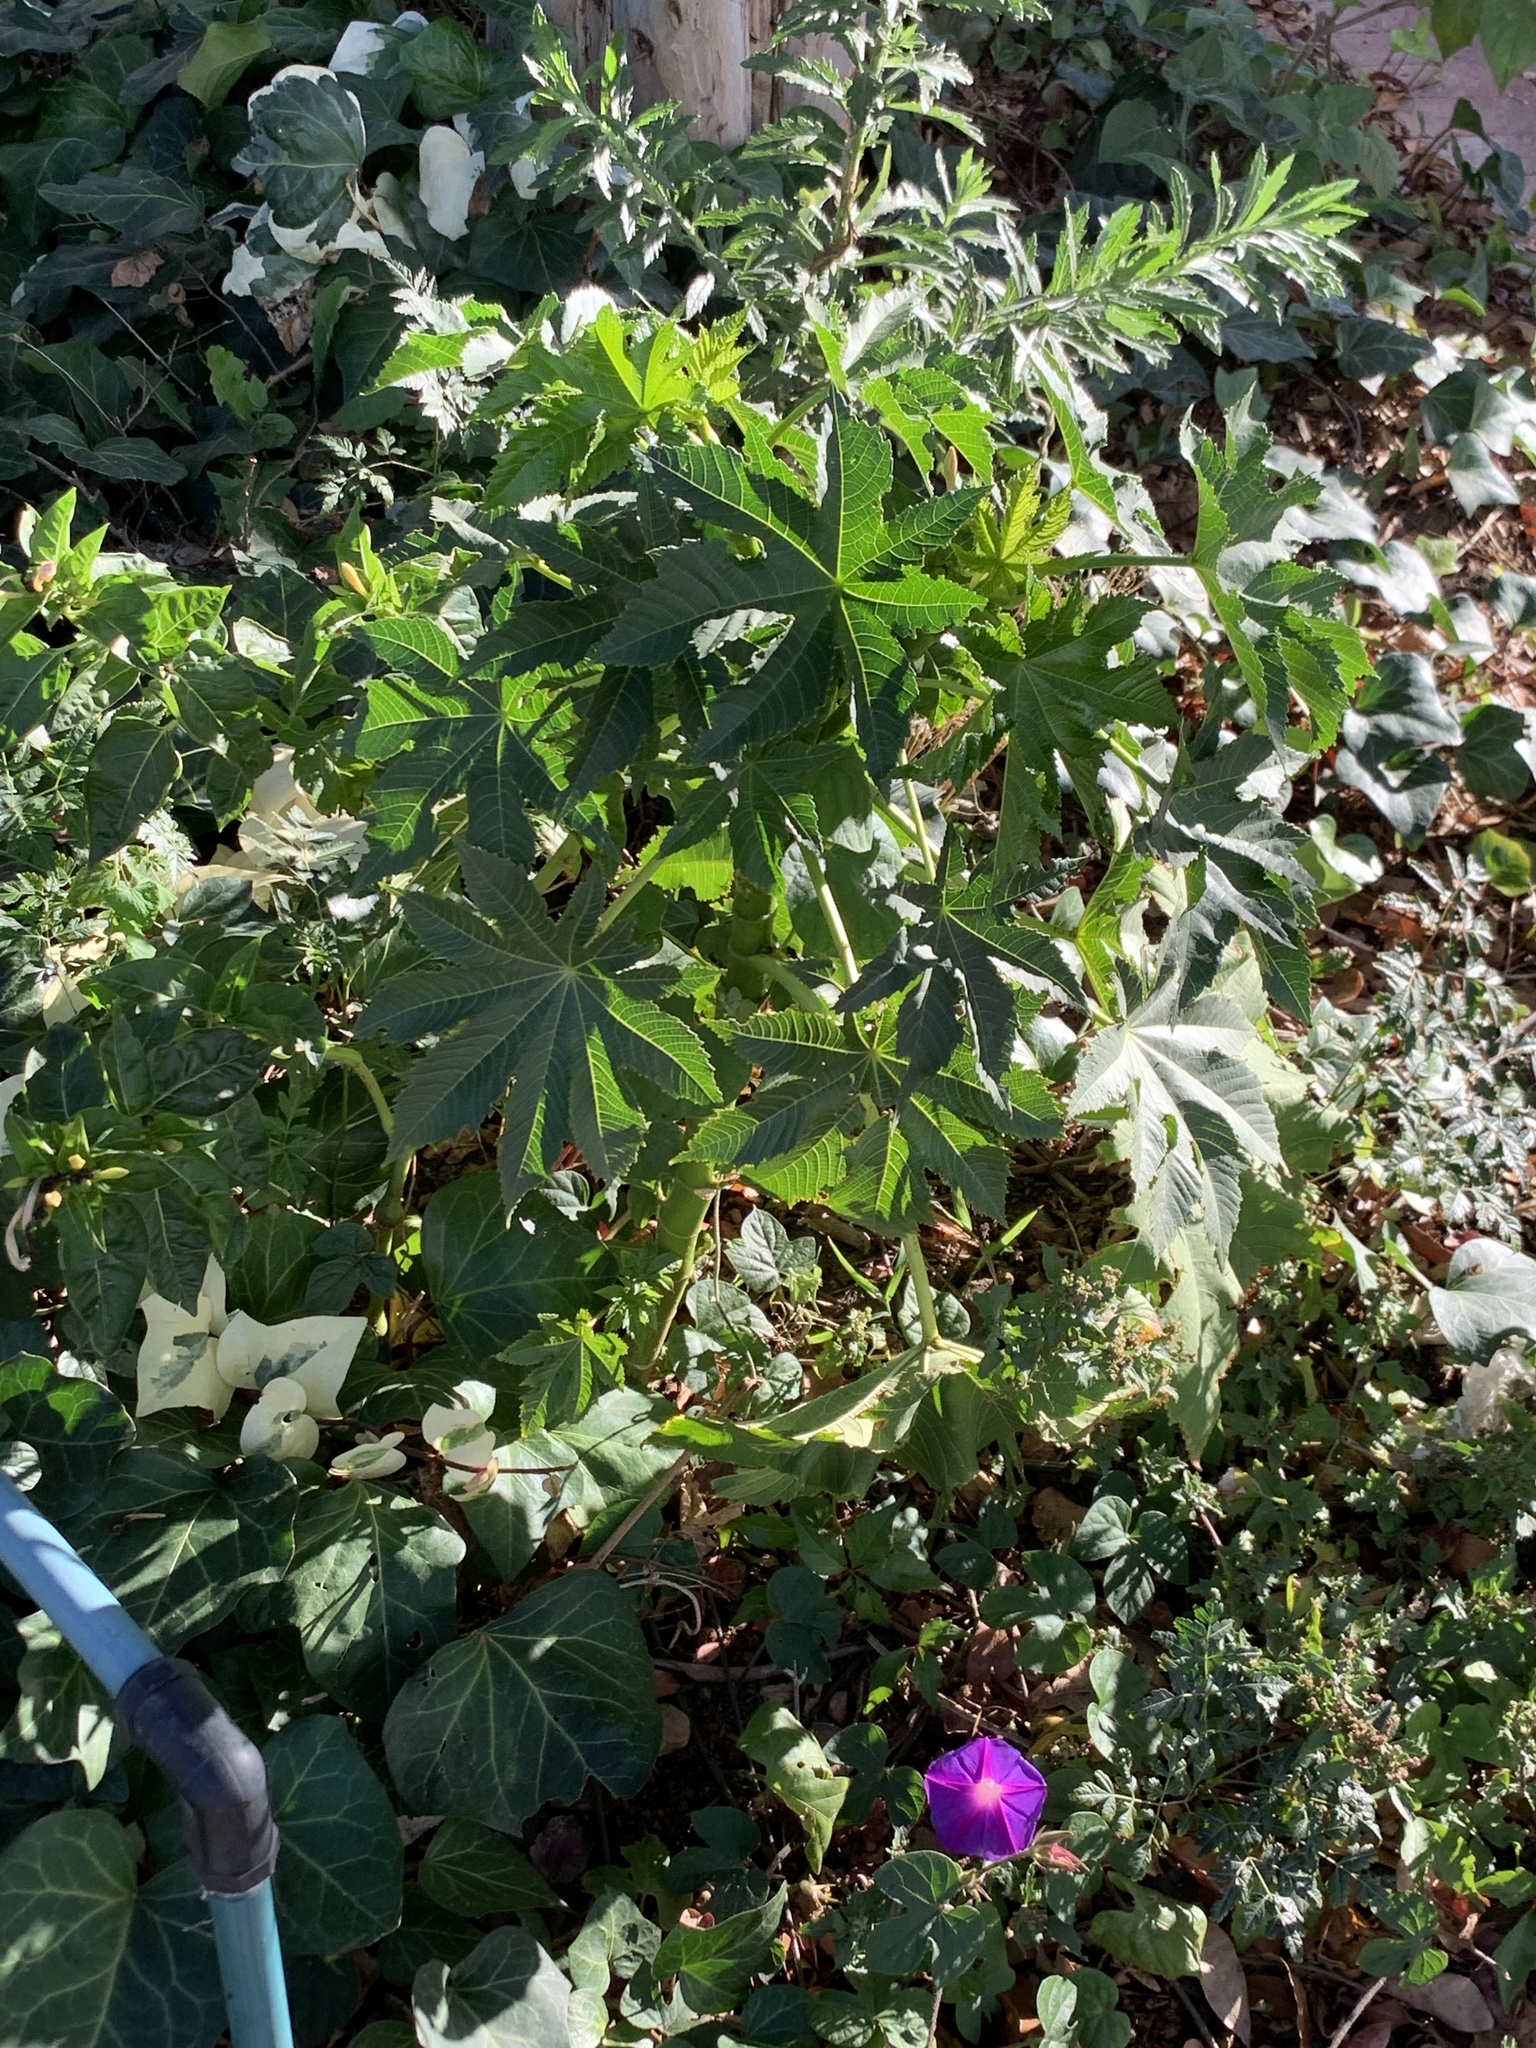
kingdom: Plantae
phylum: Tracheophyta
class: Magnoliopsida
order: Malpighiales
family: Euphorbiaceae
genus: Ricinus
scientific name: Ricinus communis
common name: Castor-oil-plant
